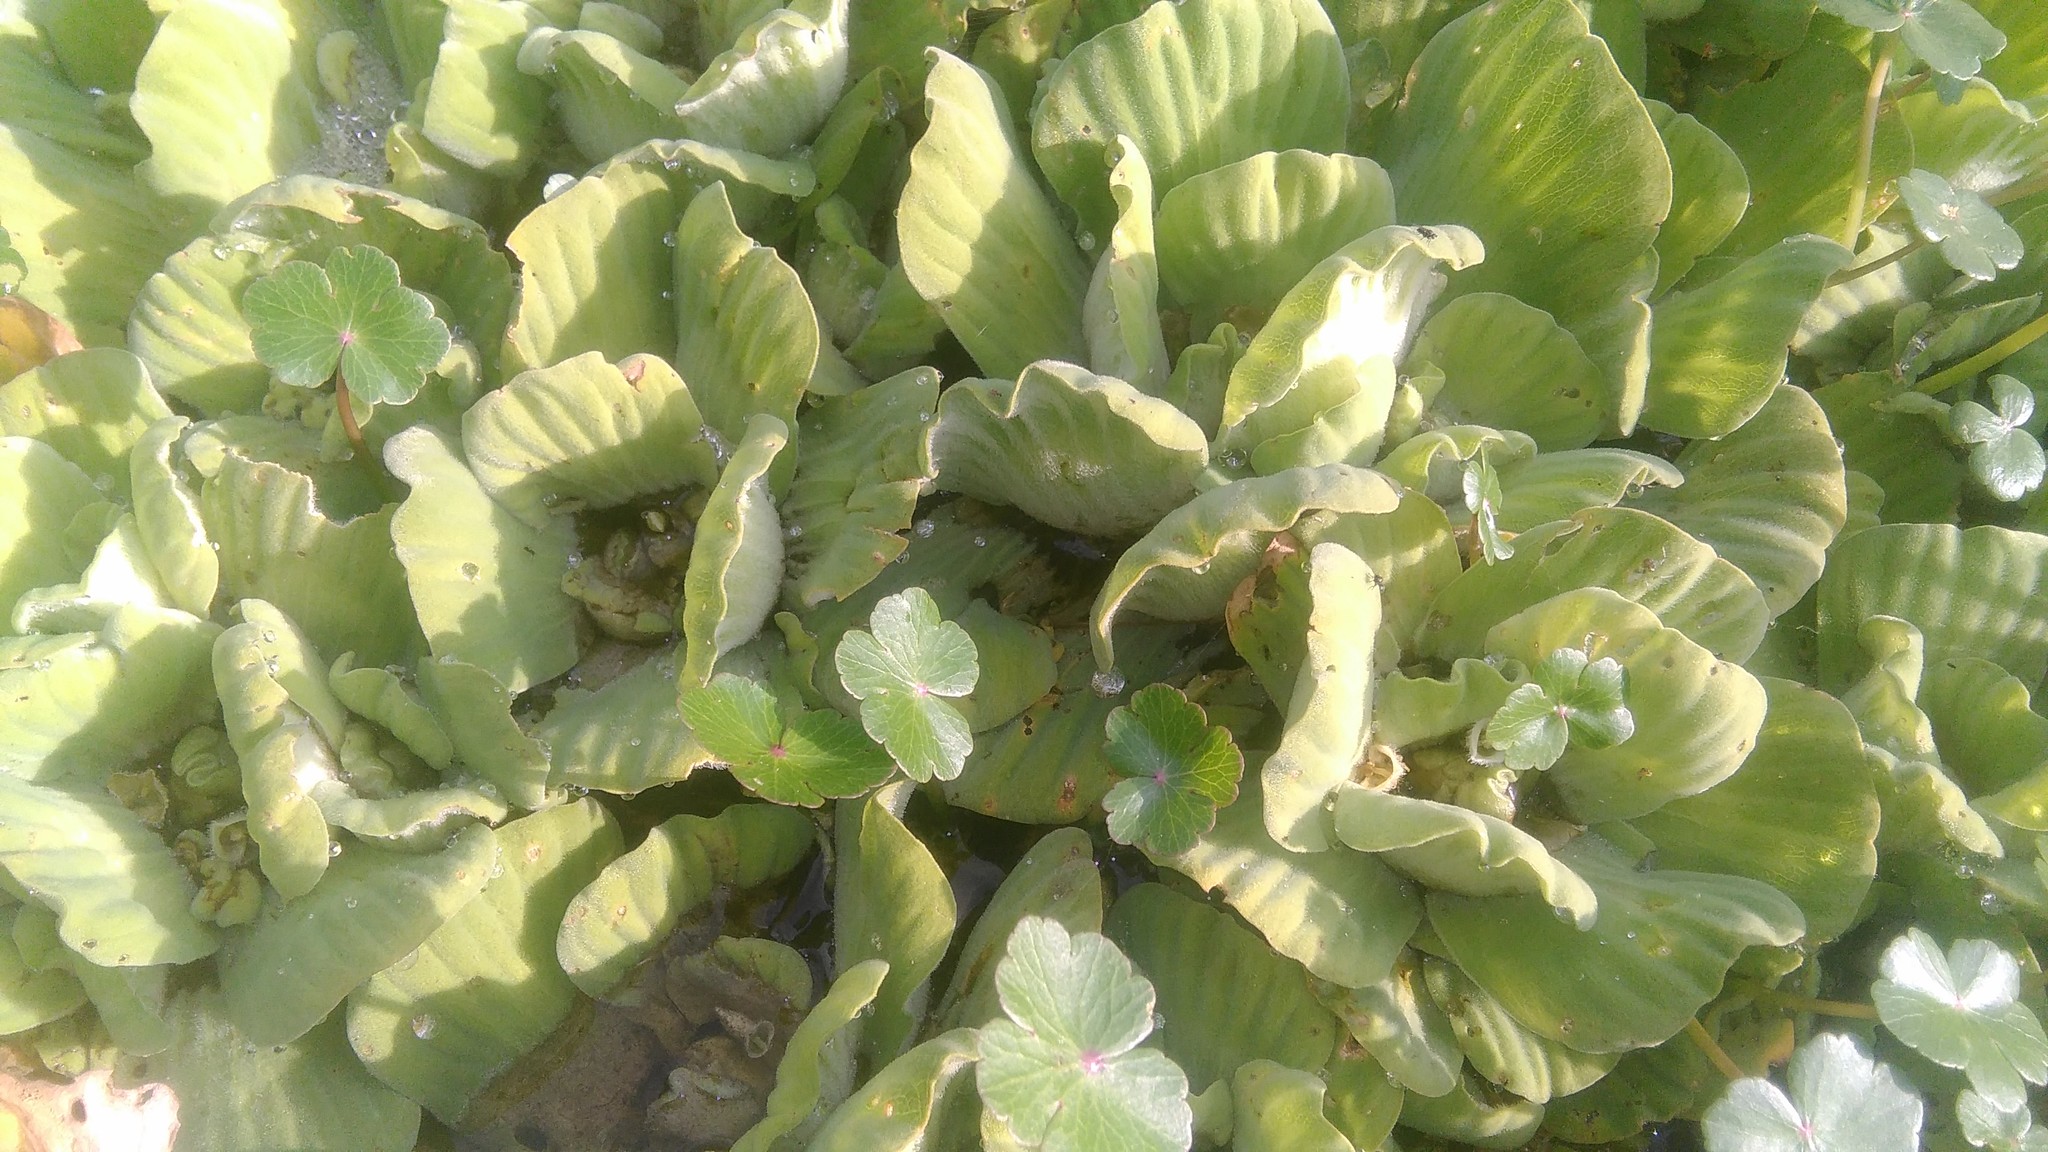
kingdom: Plantae
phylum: Tracheophyta
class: Liliopsida
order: Alismatales
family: Araceae
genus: Pistia
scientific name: Pistia stratiotes
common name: Water lettuce
